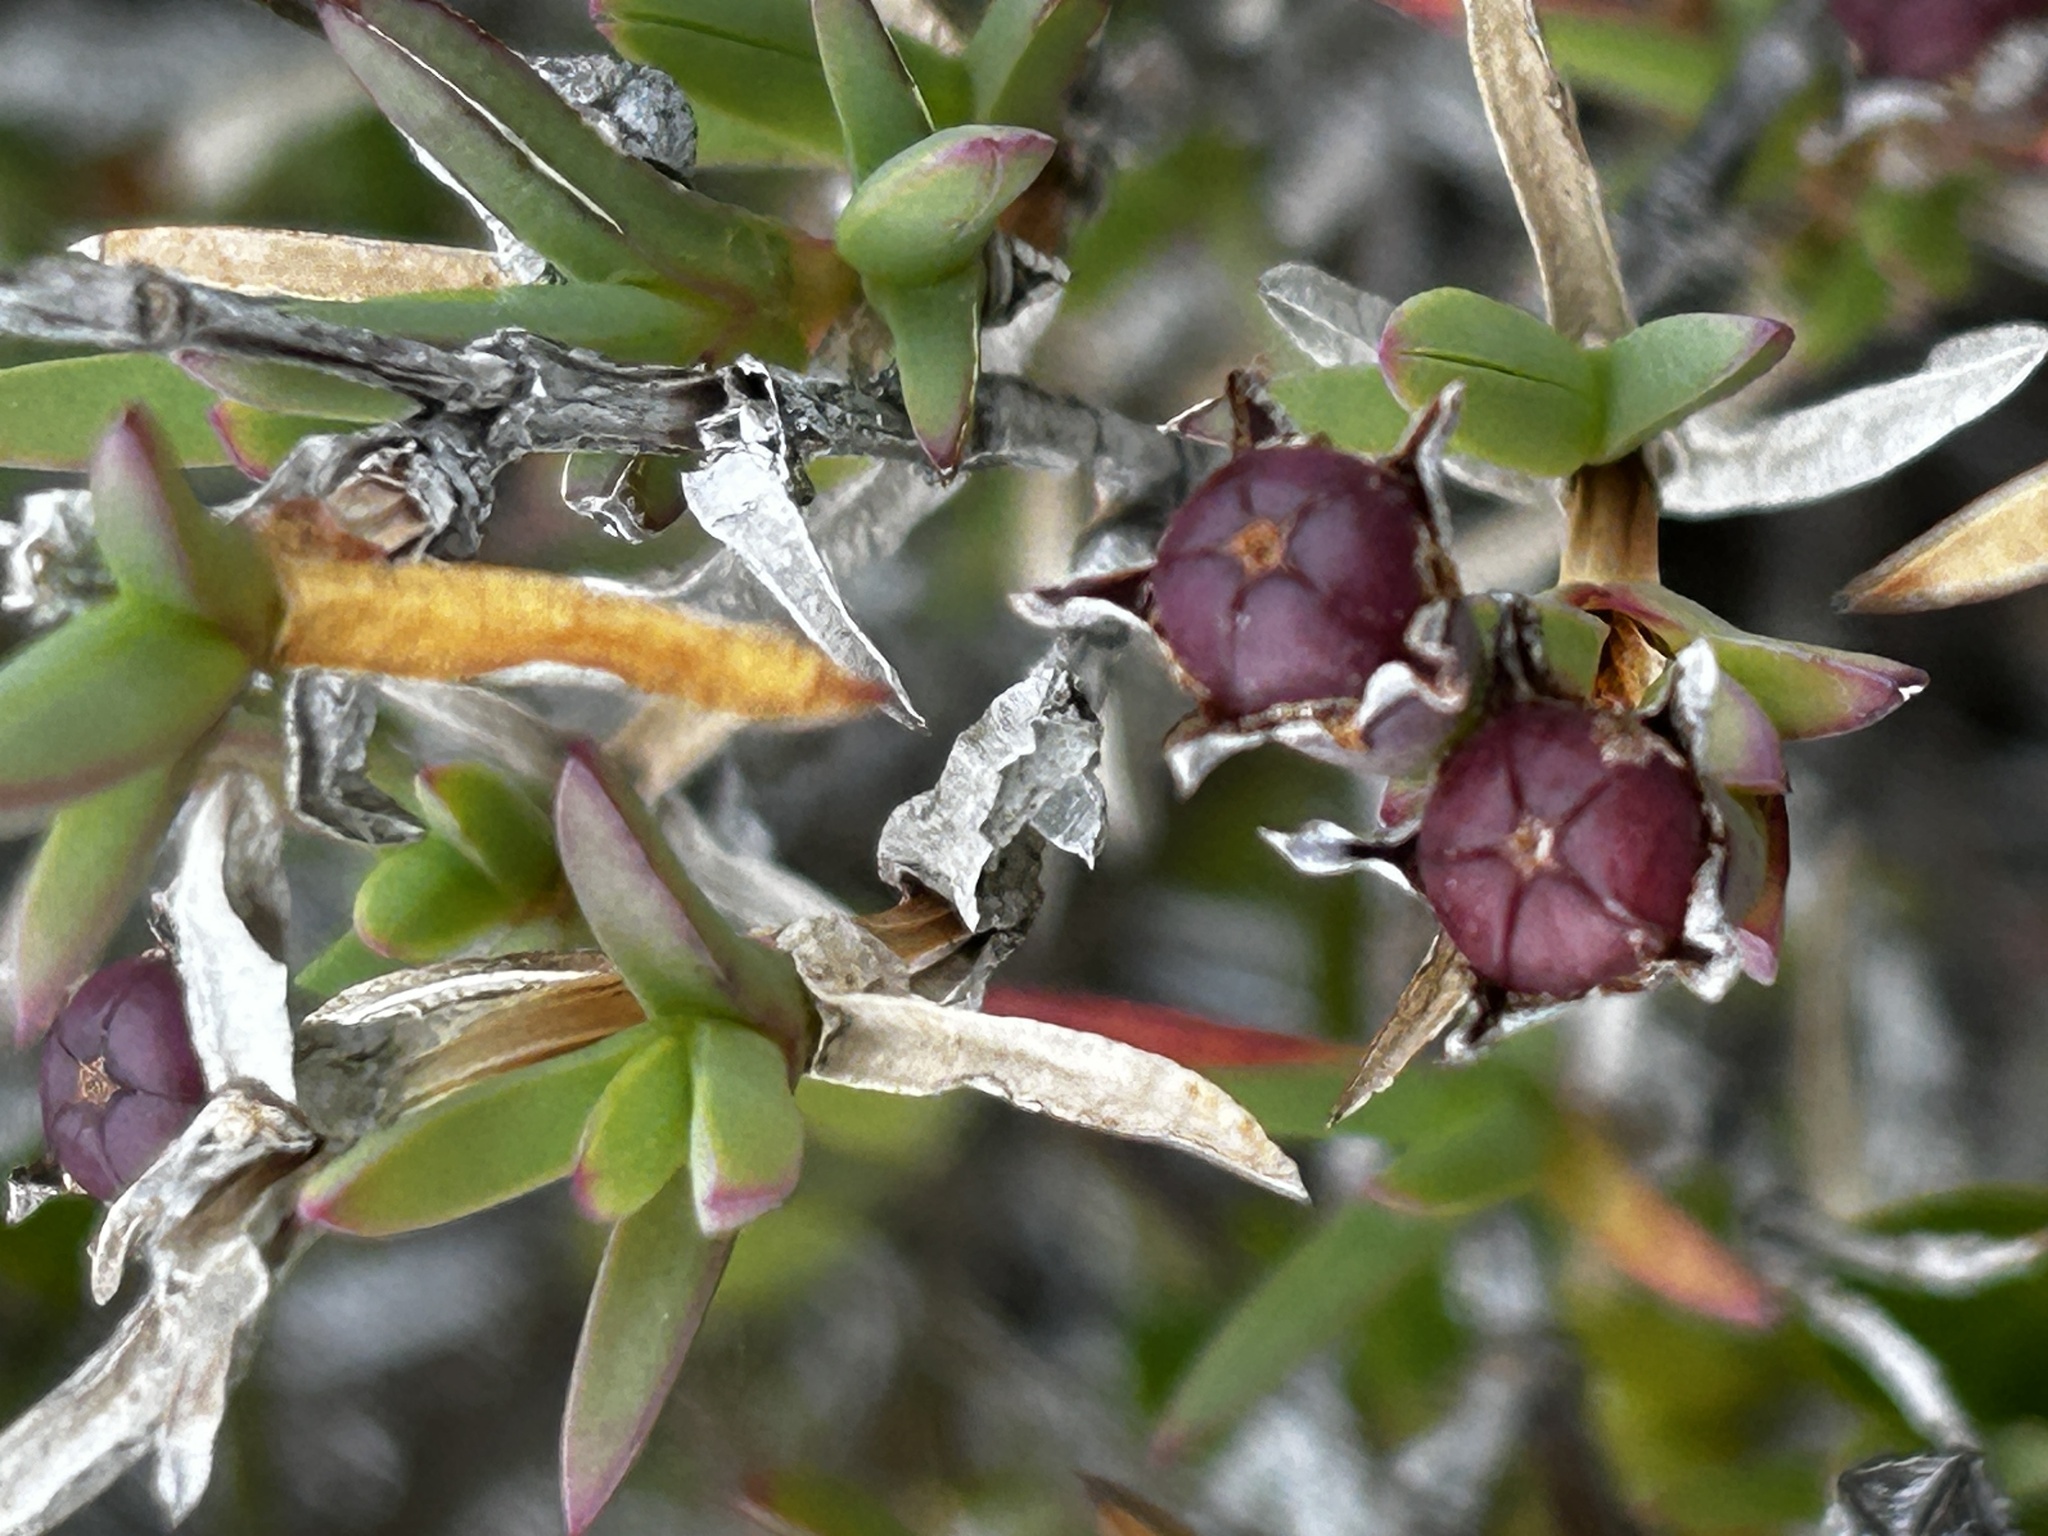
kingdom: Plantae
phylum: Tracheophyta
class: Magnoliopsida
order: Caryophyllales
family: Aizoaceae
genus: Ruschia
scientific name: Ruschia calcicola
